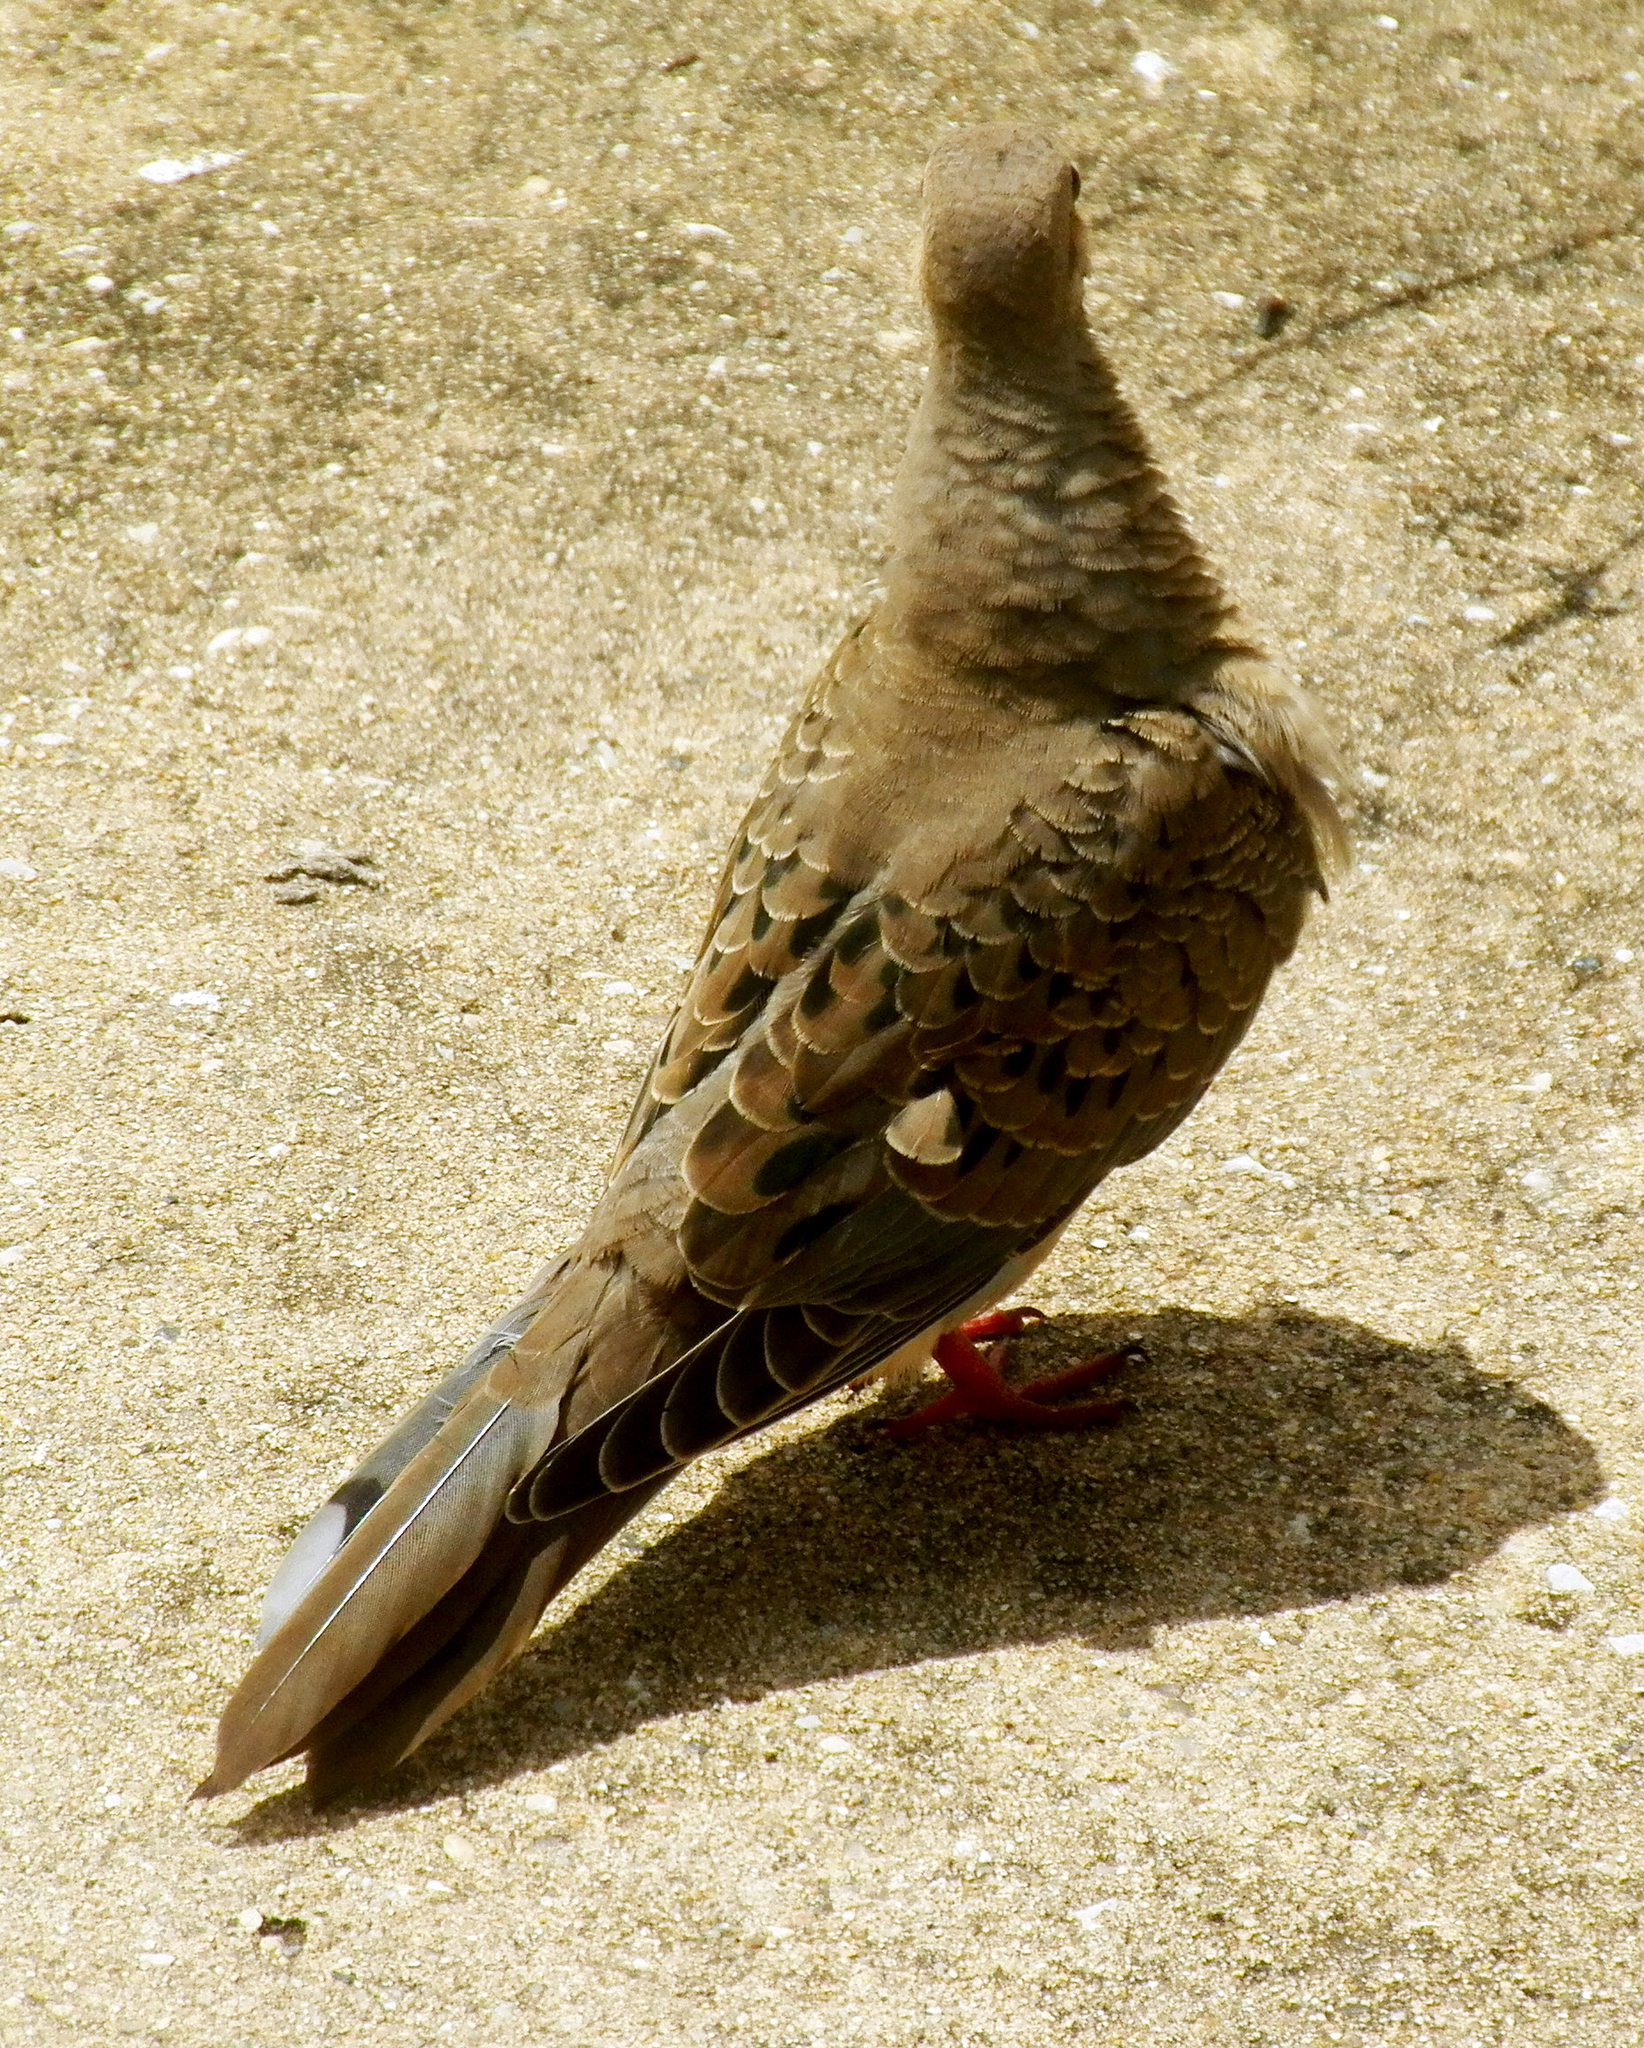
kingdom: Animalia
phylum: Chordata
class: Aves
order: Columbiformes
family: Columbidae
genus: Zenaida
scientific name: Zenaida macroura
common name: Mourning dove
